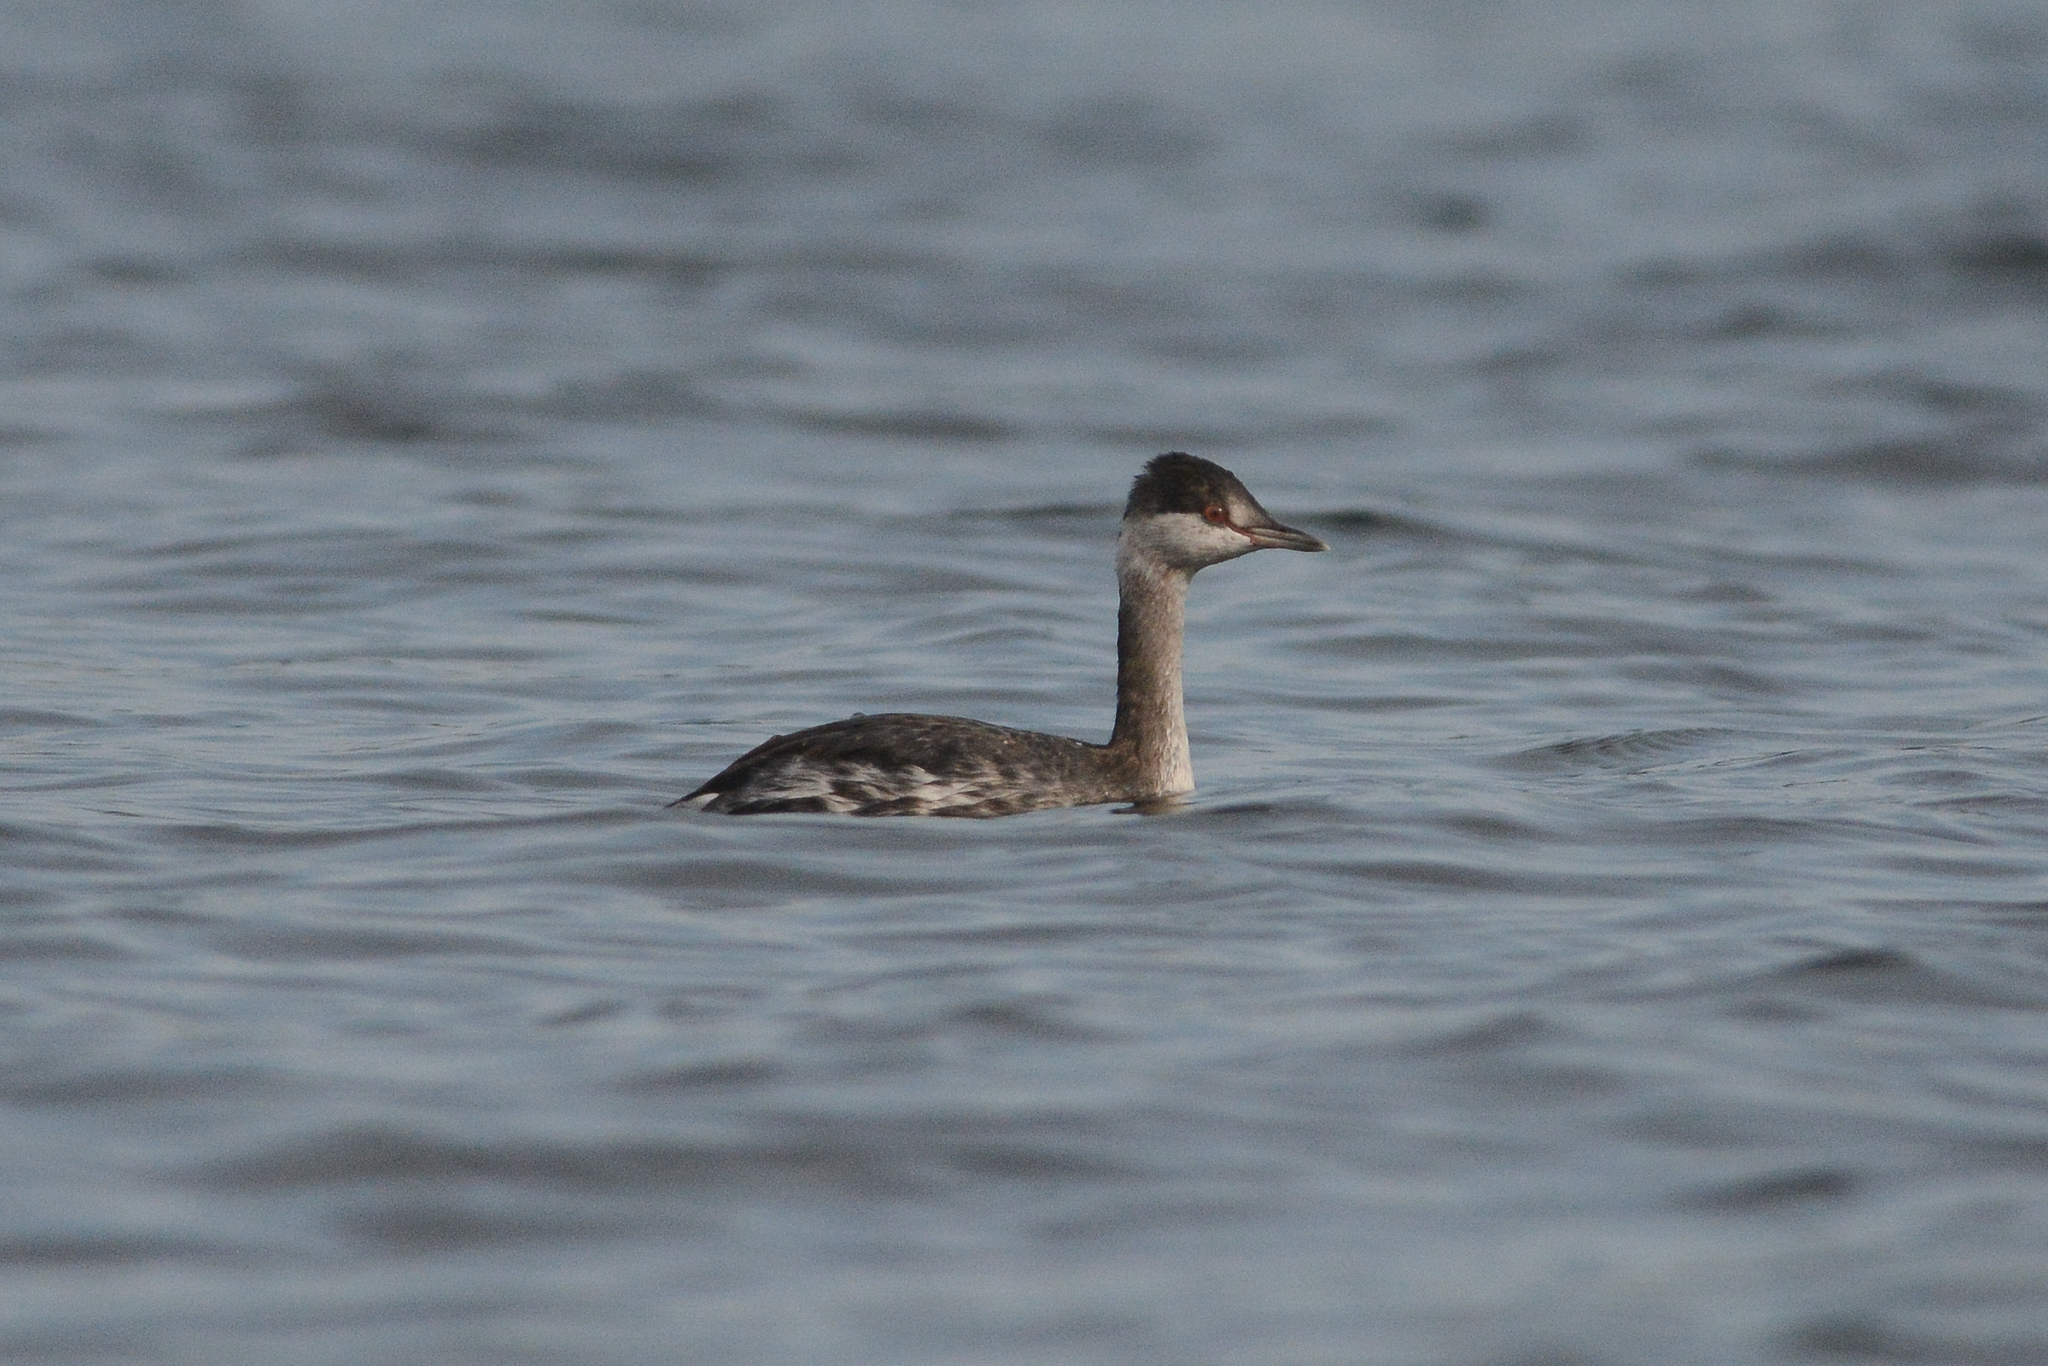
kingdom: Animalia
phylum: Chordata
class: Aves
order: Podicipediformes
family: Podicipedidae
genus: Podiceps
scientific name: Podiceps auritus
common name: Horned grebe
